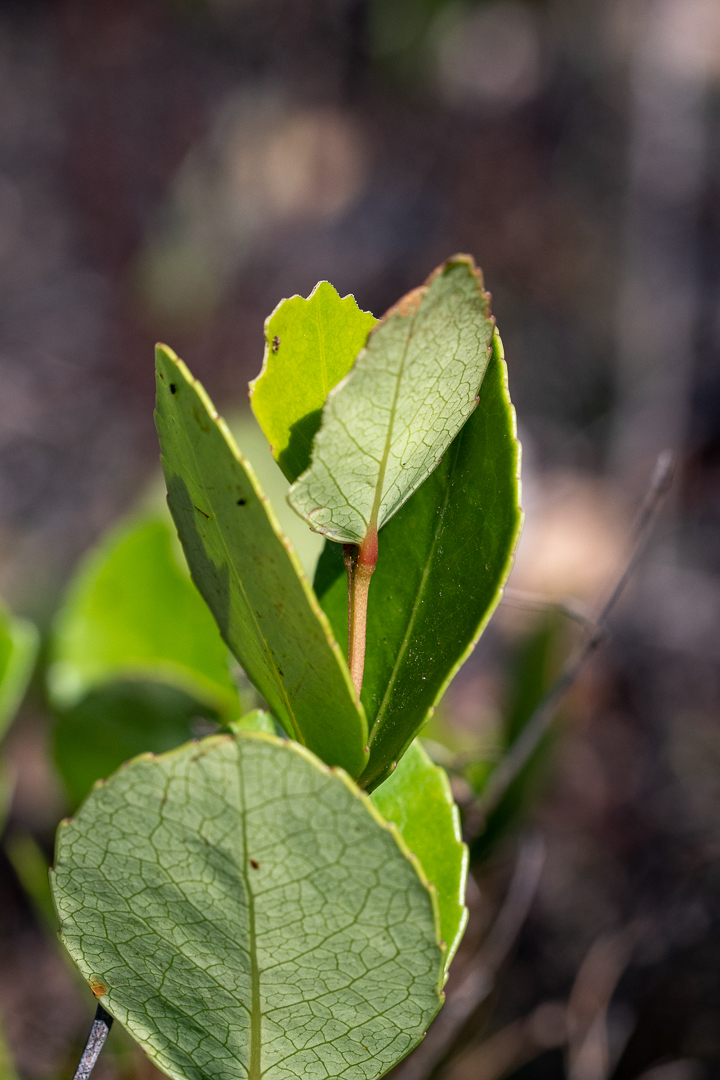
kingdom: Plantae
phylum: Tracheophyta
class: Magnoliopsida
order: Celastrales
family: Celastraceae
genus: Cassine
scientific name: Cassine peragua
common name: Cape saffron
